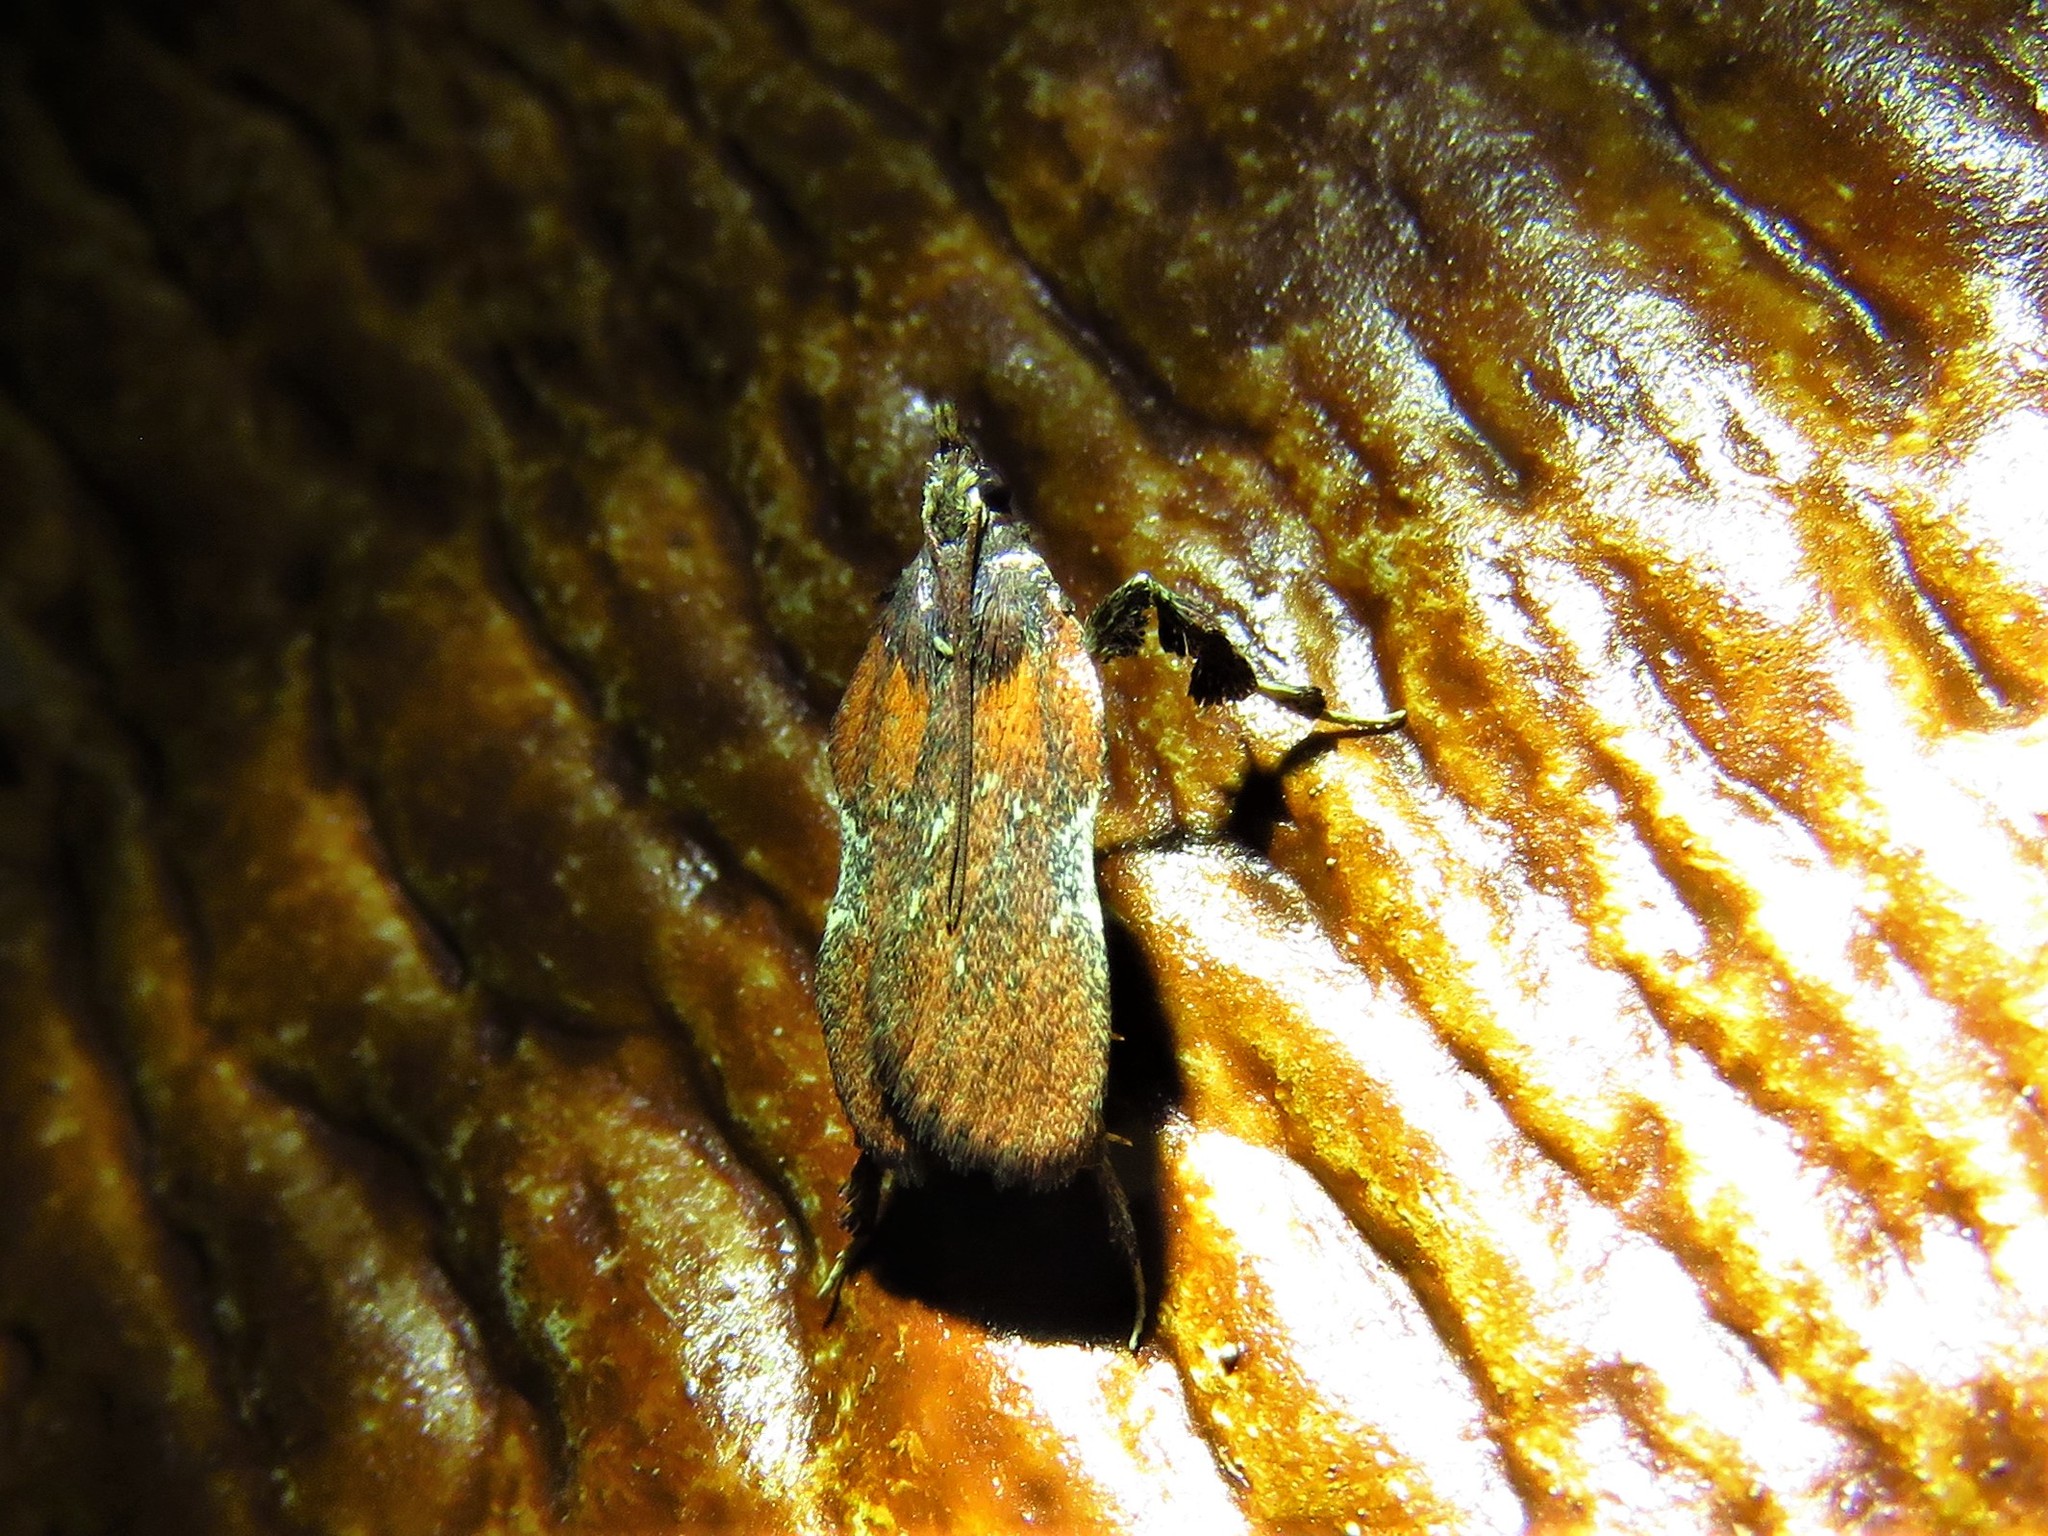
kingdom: Animalia
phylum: Arthropoda
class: Insecta
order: Lepidoptera
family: Pyralidae
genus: Galasa
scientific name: Galasa nigrinodis
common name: Boxwood leaftier moth
